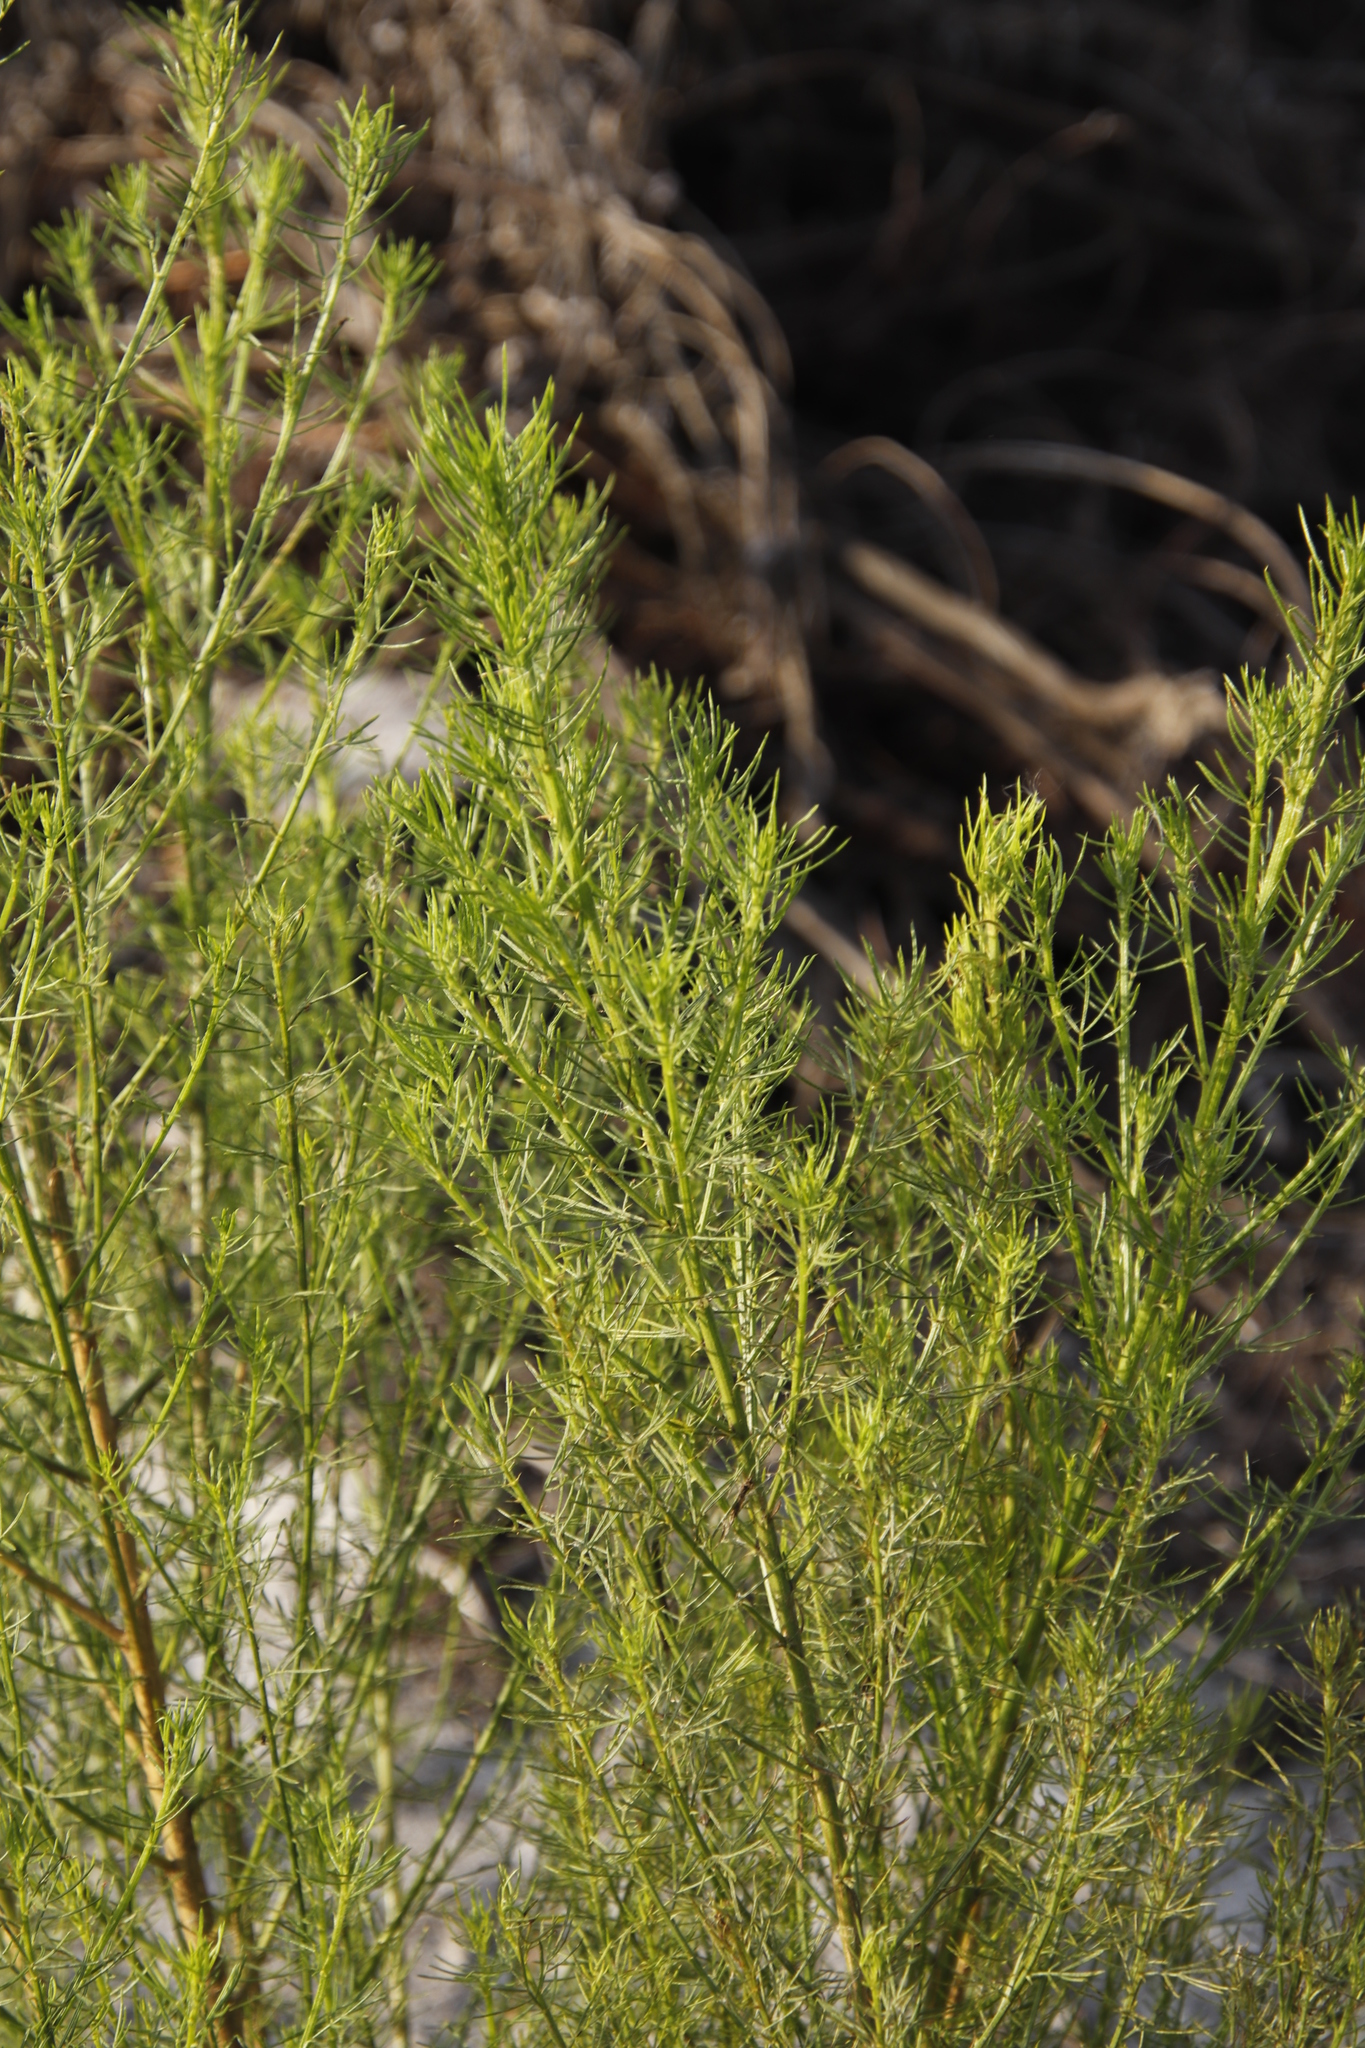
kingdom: Plantae
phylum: Tracheophyta
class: Magnoliopsida
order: Fabales
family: Fabaceae
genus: Psoralea
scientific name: Psoralea pinnata
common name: African scurfpea
